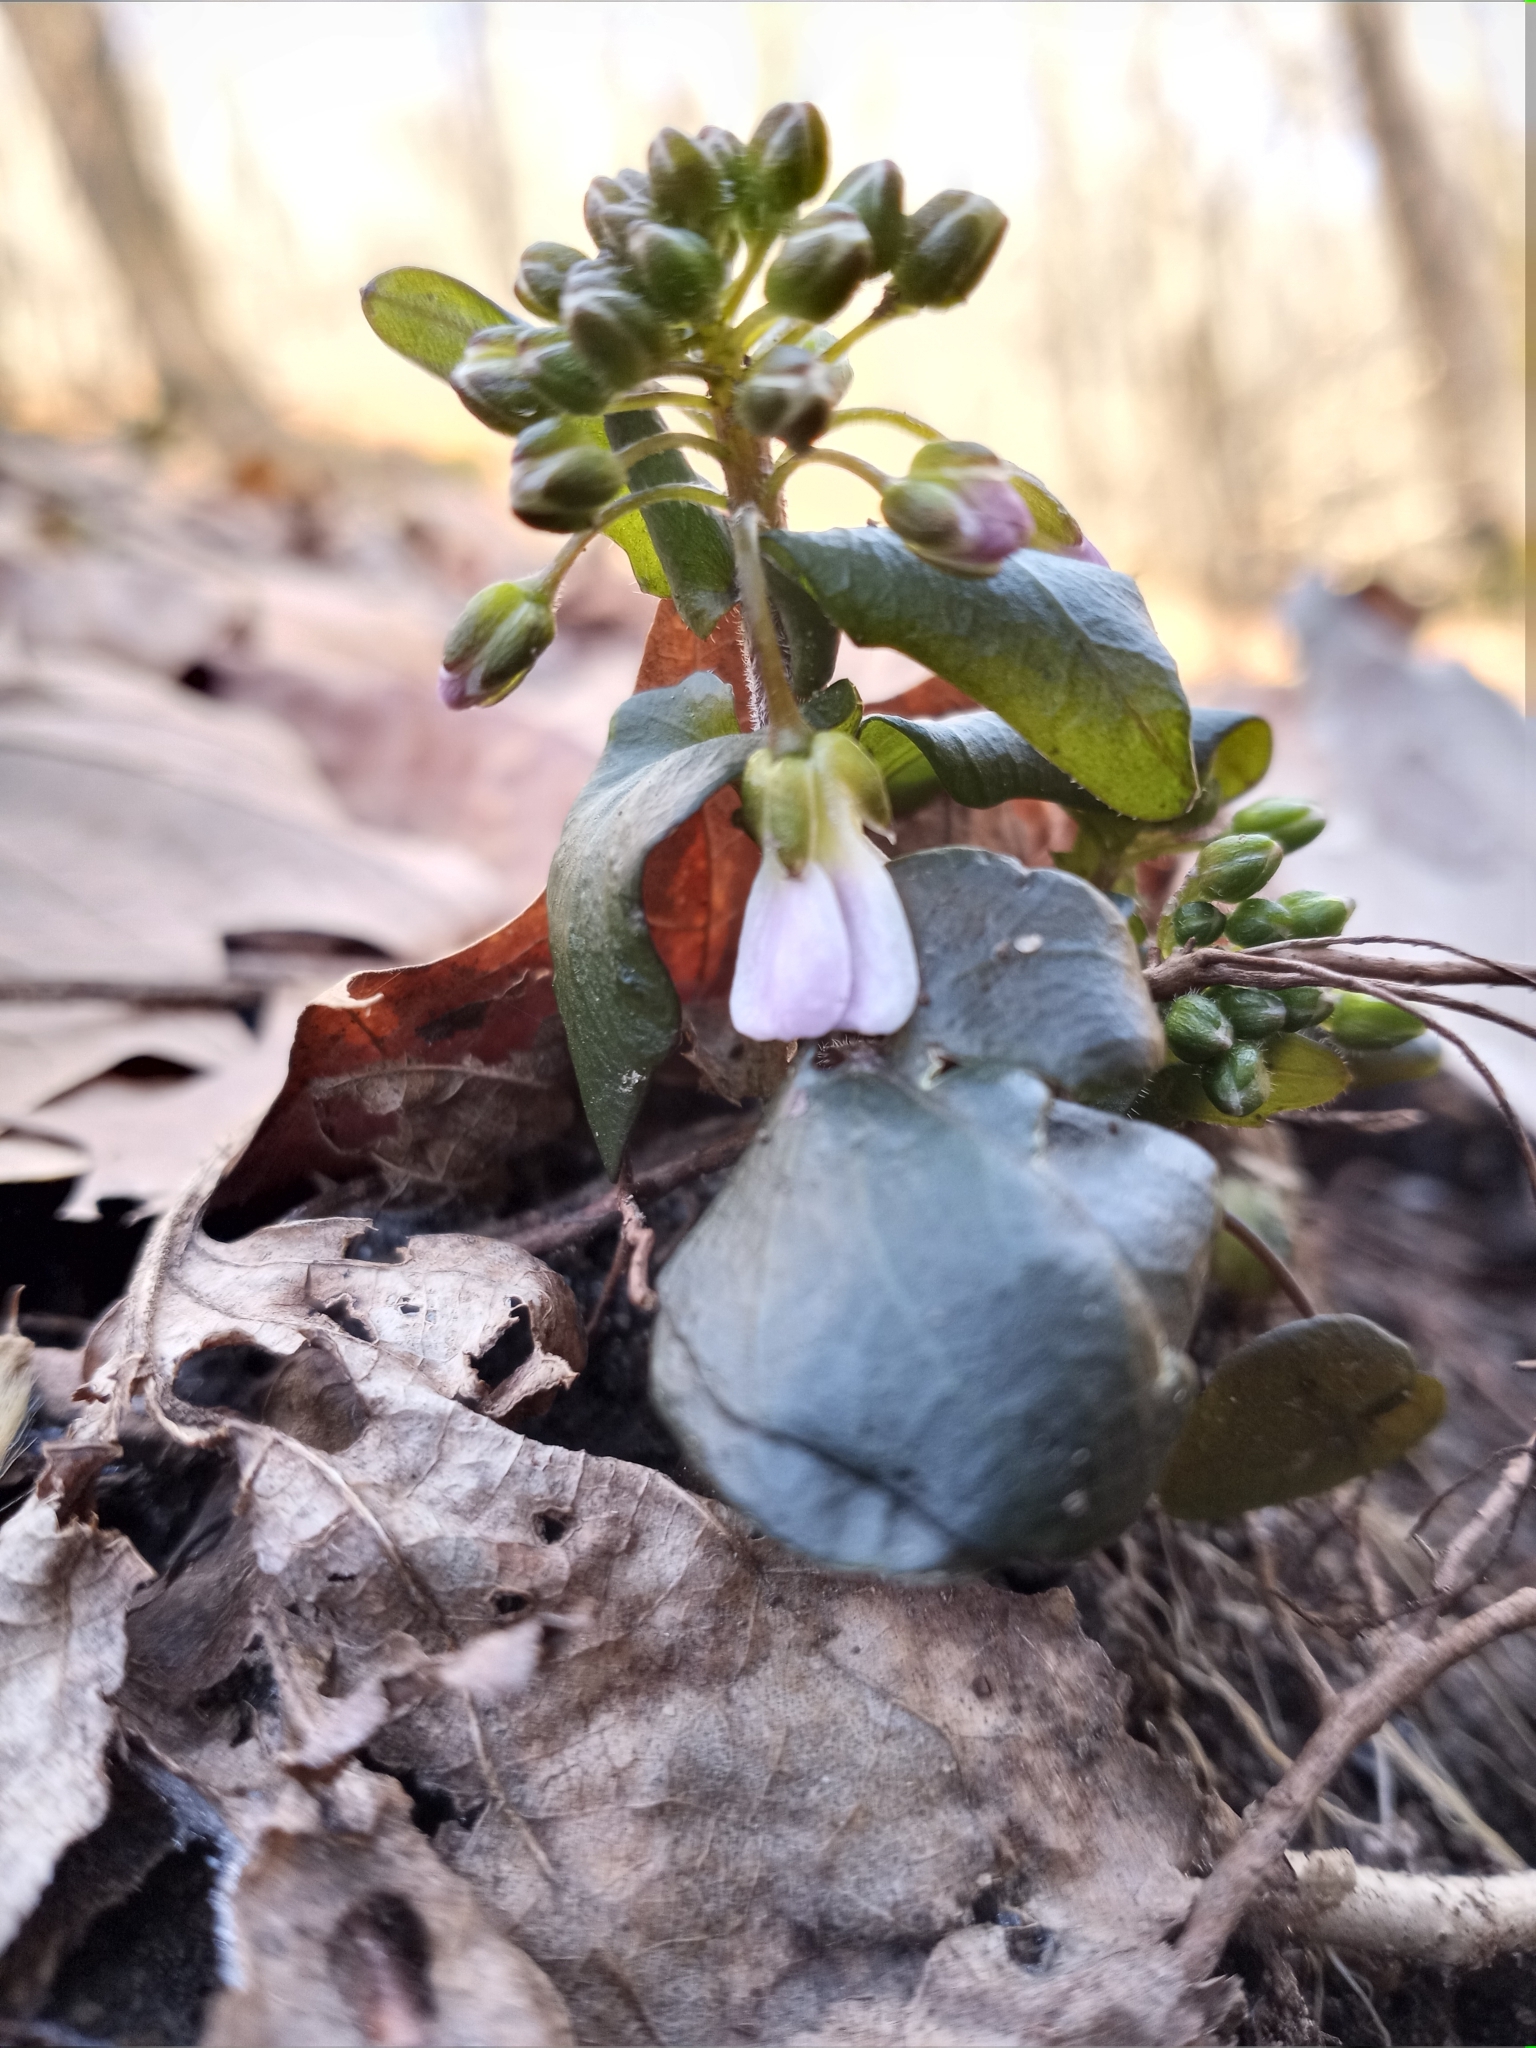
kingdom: Plantae
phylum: Tracheophyta
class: Magnoliopsida
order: Brassicales
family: Brassicaceae
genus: Cardamine
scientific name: Cardamine douglassii
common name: Purple cress
